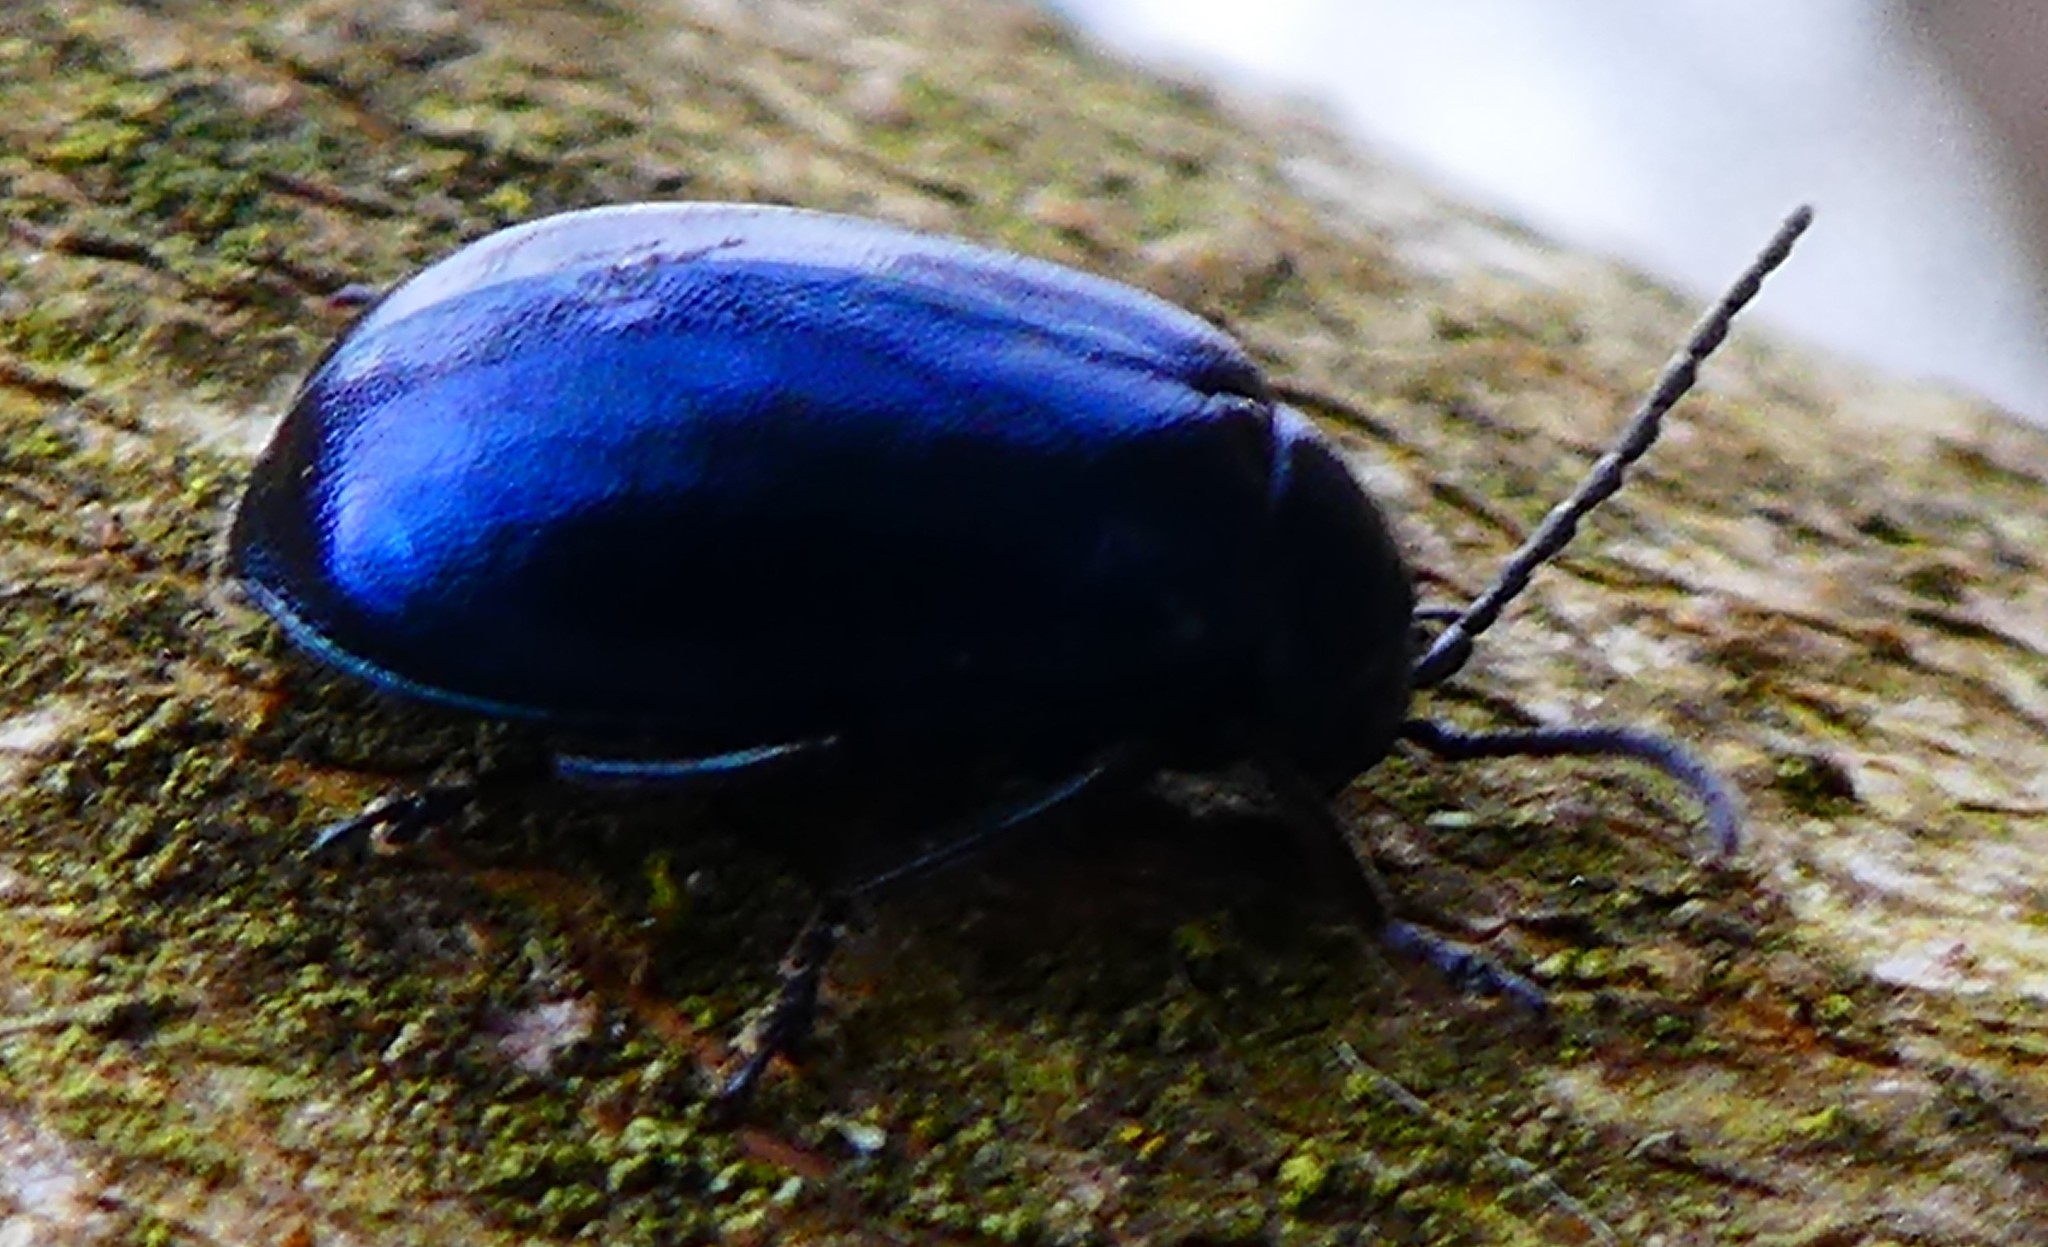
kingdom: Animalia
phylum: Arthropoda
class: Insecta
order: Coleoptera
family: Chrysomelidae
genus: Agelastica
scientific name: Agelastica alni
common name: Alder leaf beetle
